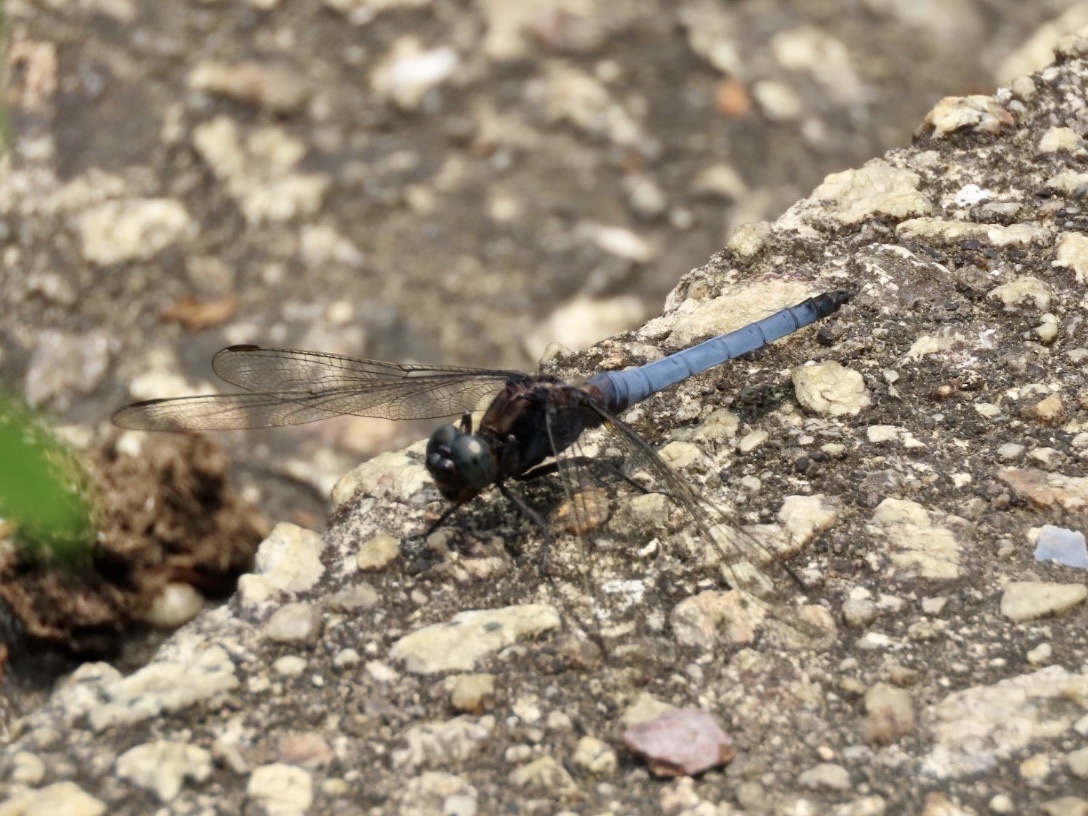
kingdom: Animalia
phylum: Arthropoda
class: Insecta
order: Odonata
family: Libellulidae
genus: Orthetrum
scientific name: Orthetrum glaucum
